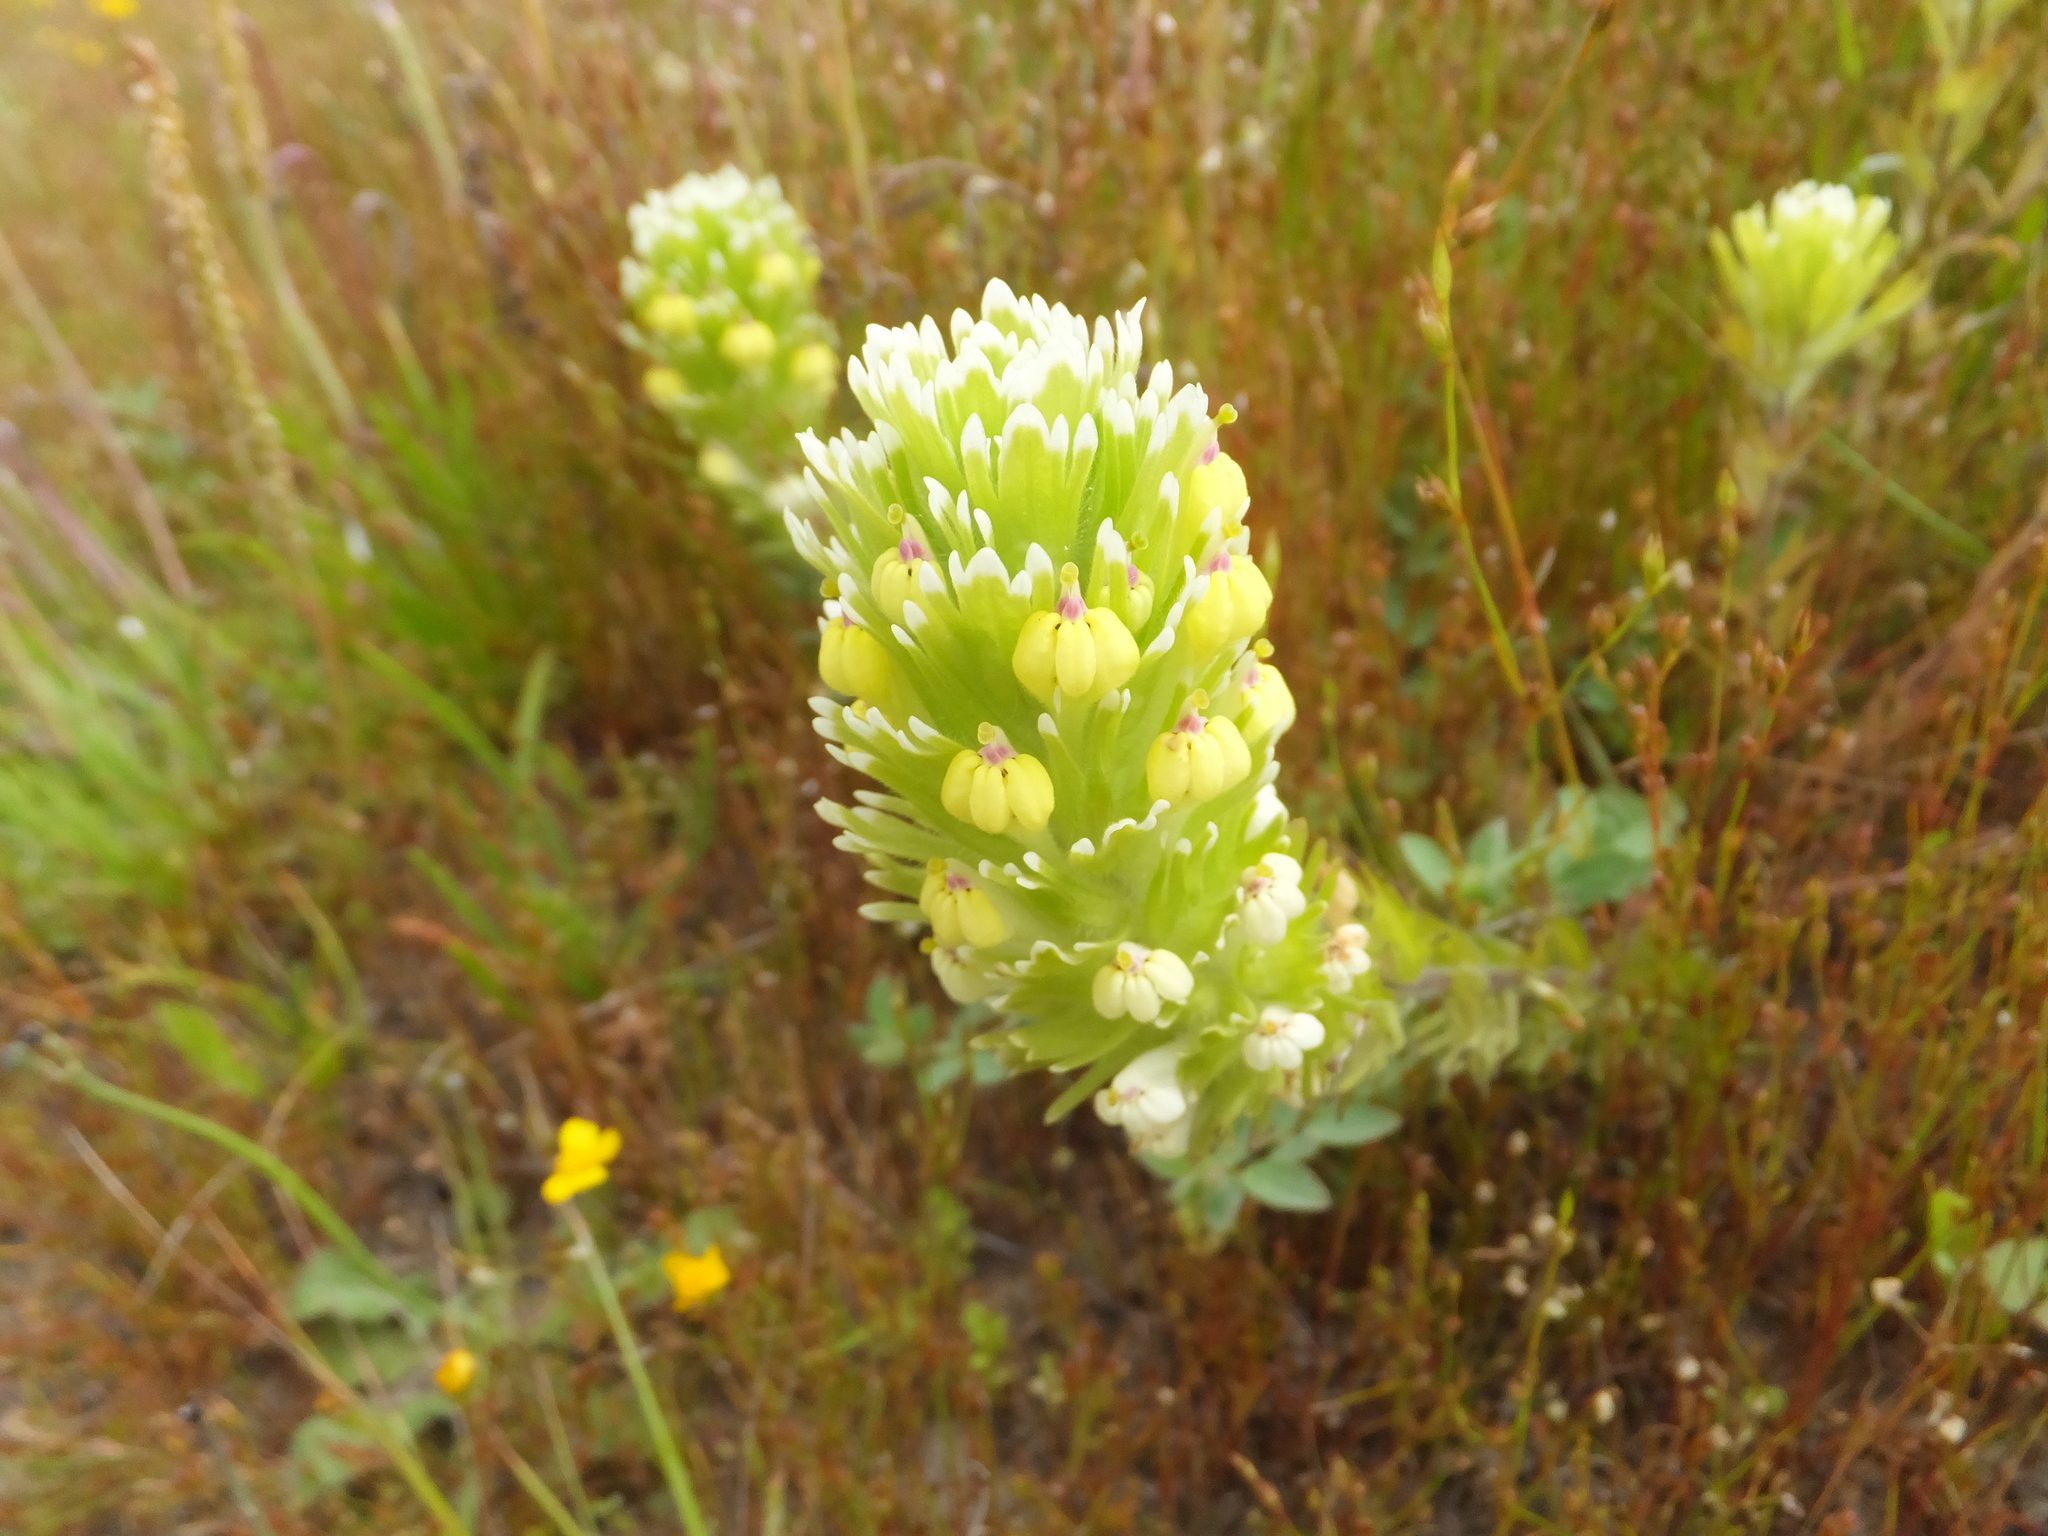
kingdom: Plantae
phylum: Tracheophyta
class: Magnoliopsida
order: Lamiales
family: Orobanchaceae
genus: Castilleja
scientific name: Castilleja ambigua
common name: Johnny-nip
